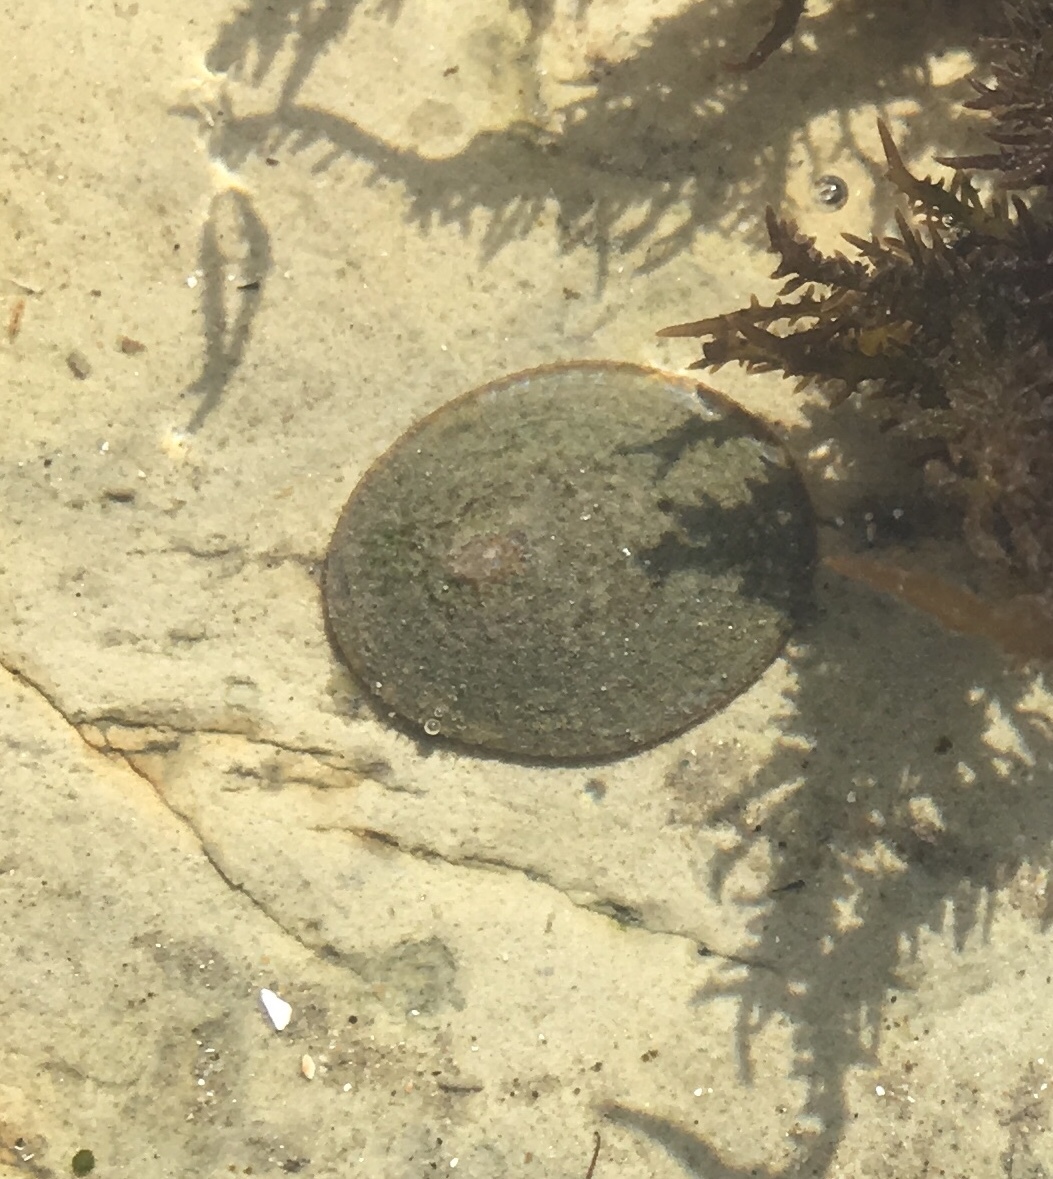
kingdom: Animalia
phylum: Mollusca
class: Gastropoda
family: Lottiidae
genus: Lottia
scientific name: Lottia limatula
